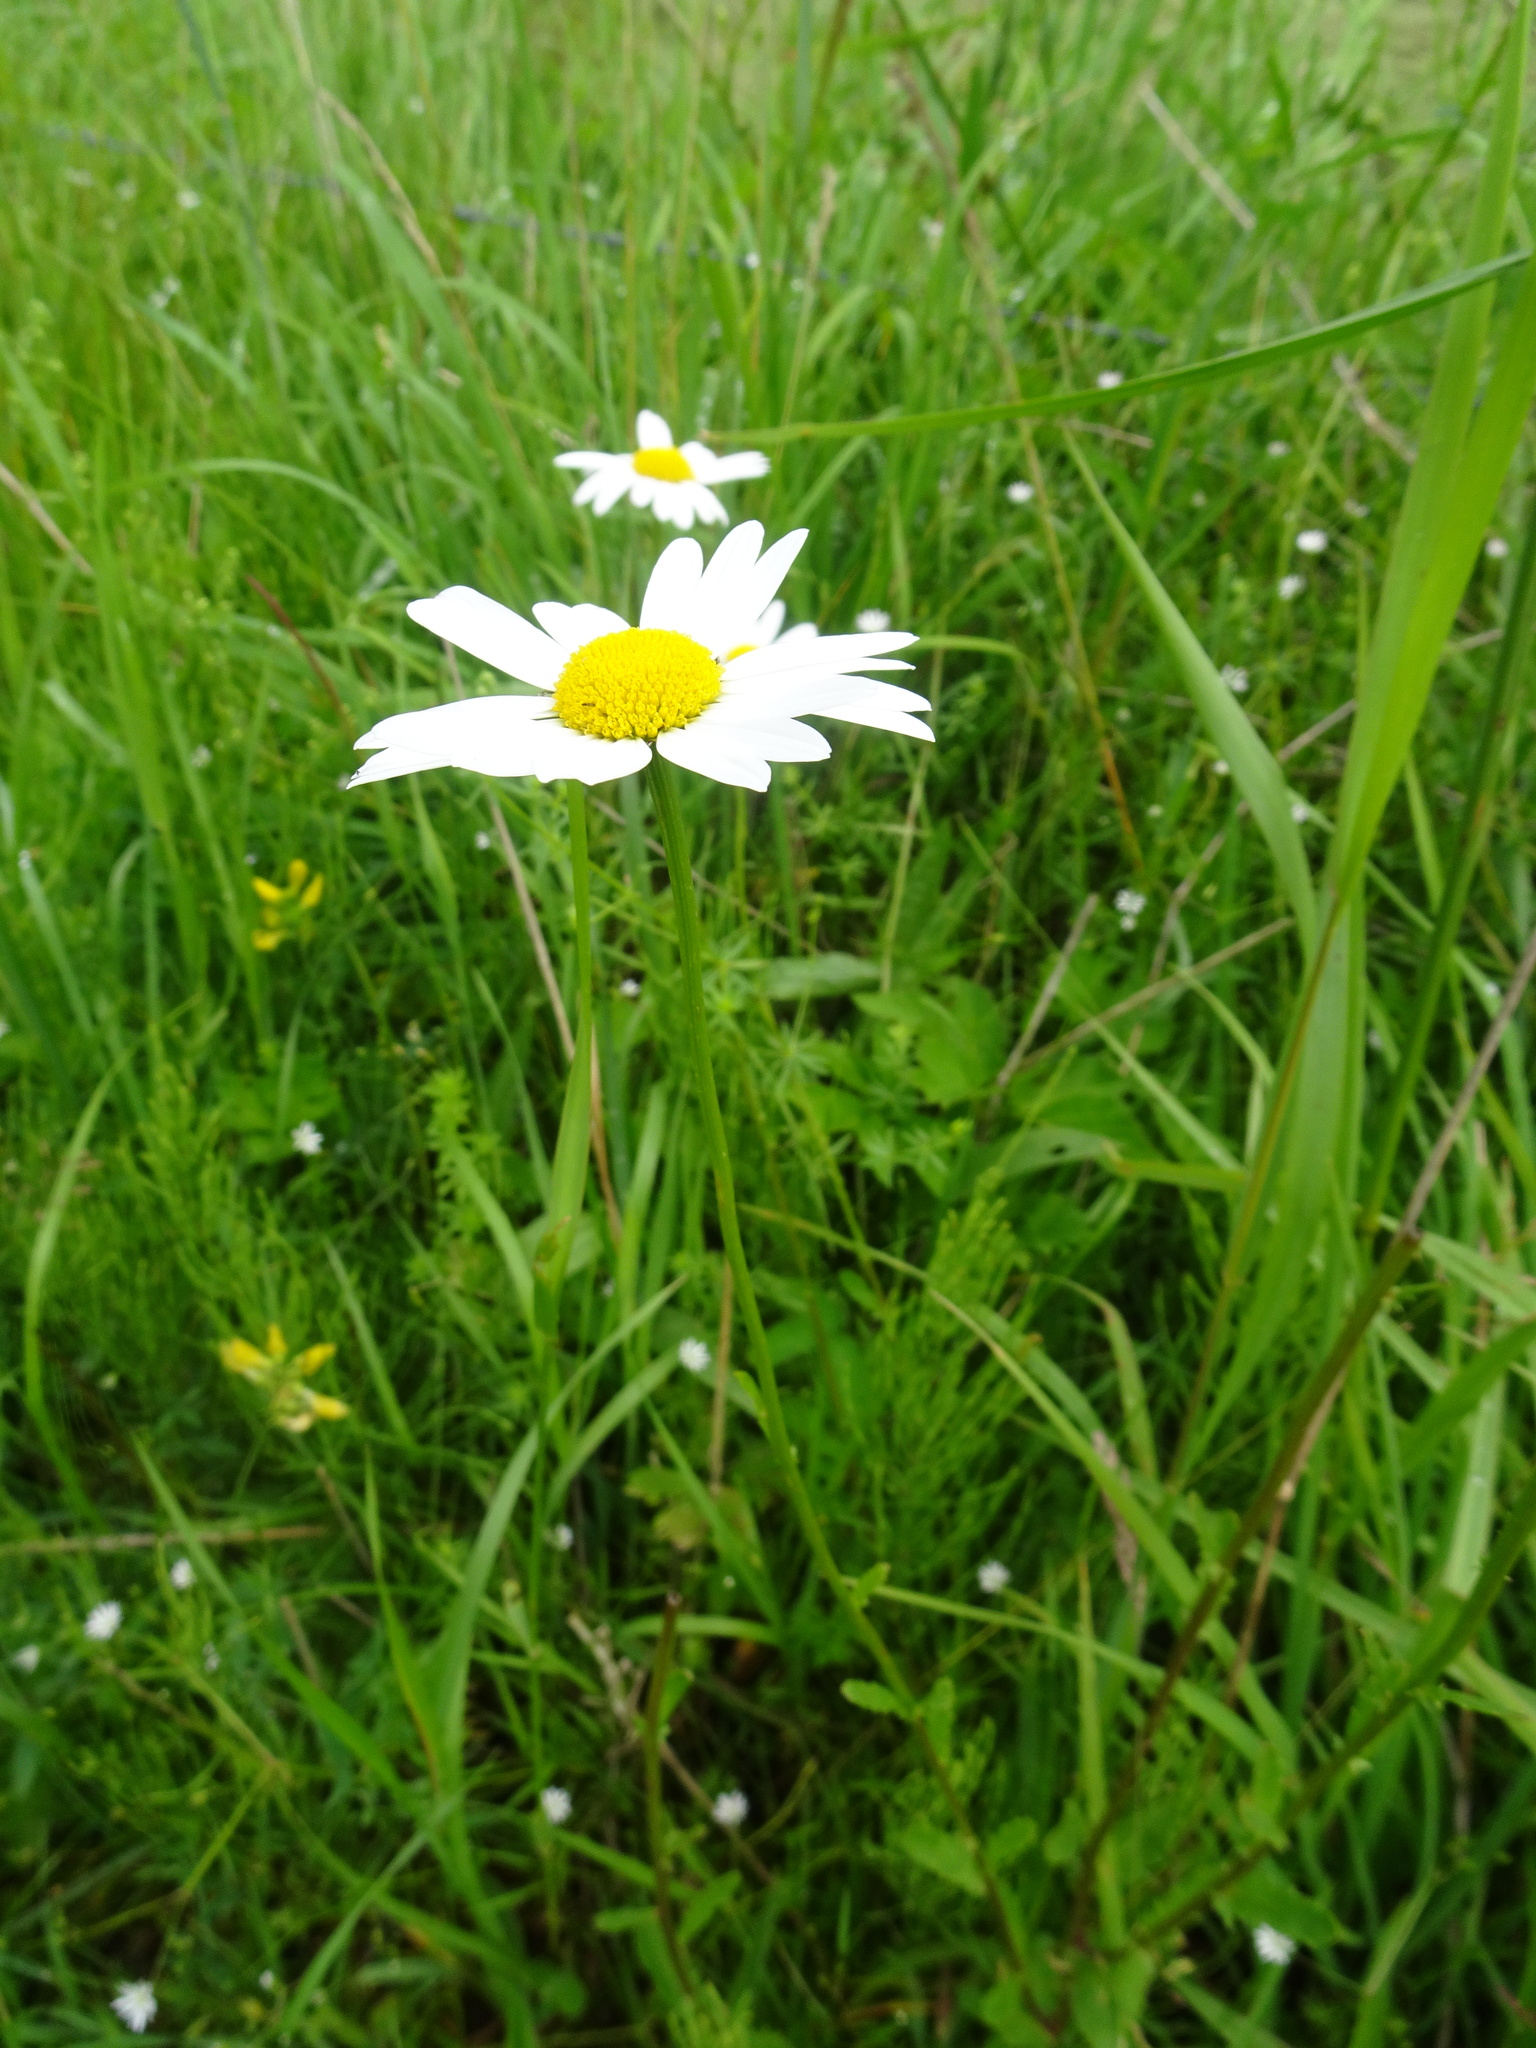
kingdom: Plantae
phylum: Tracheophyta
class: Magnoliopsida
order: Asterales
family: Asteraceae
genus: Leucanthemum
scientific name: Leucanthemum vulgare
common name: Oxeye daisy
